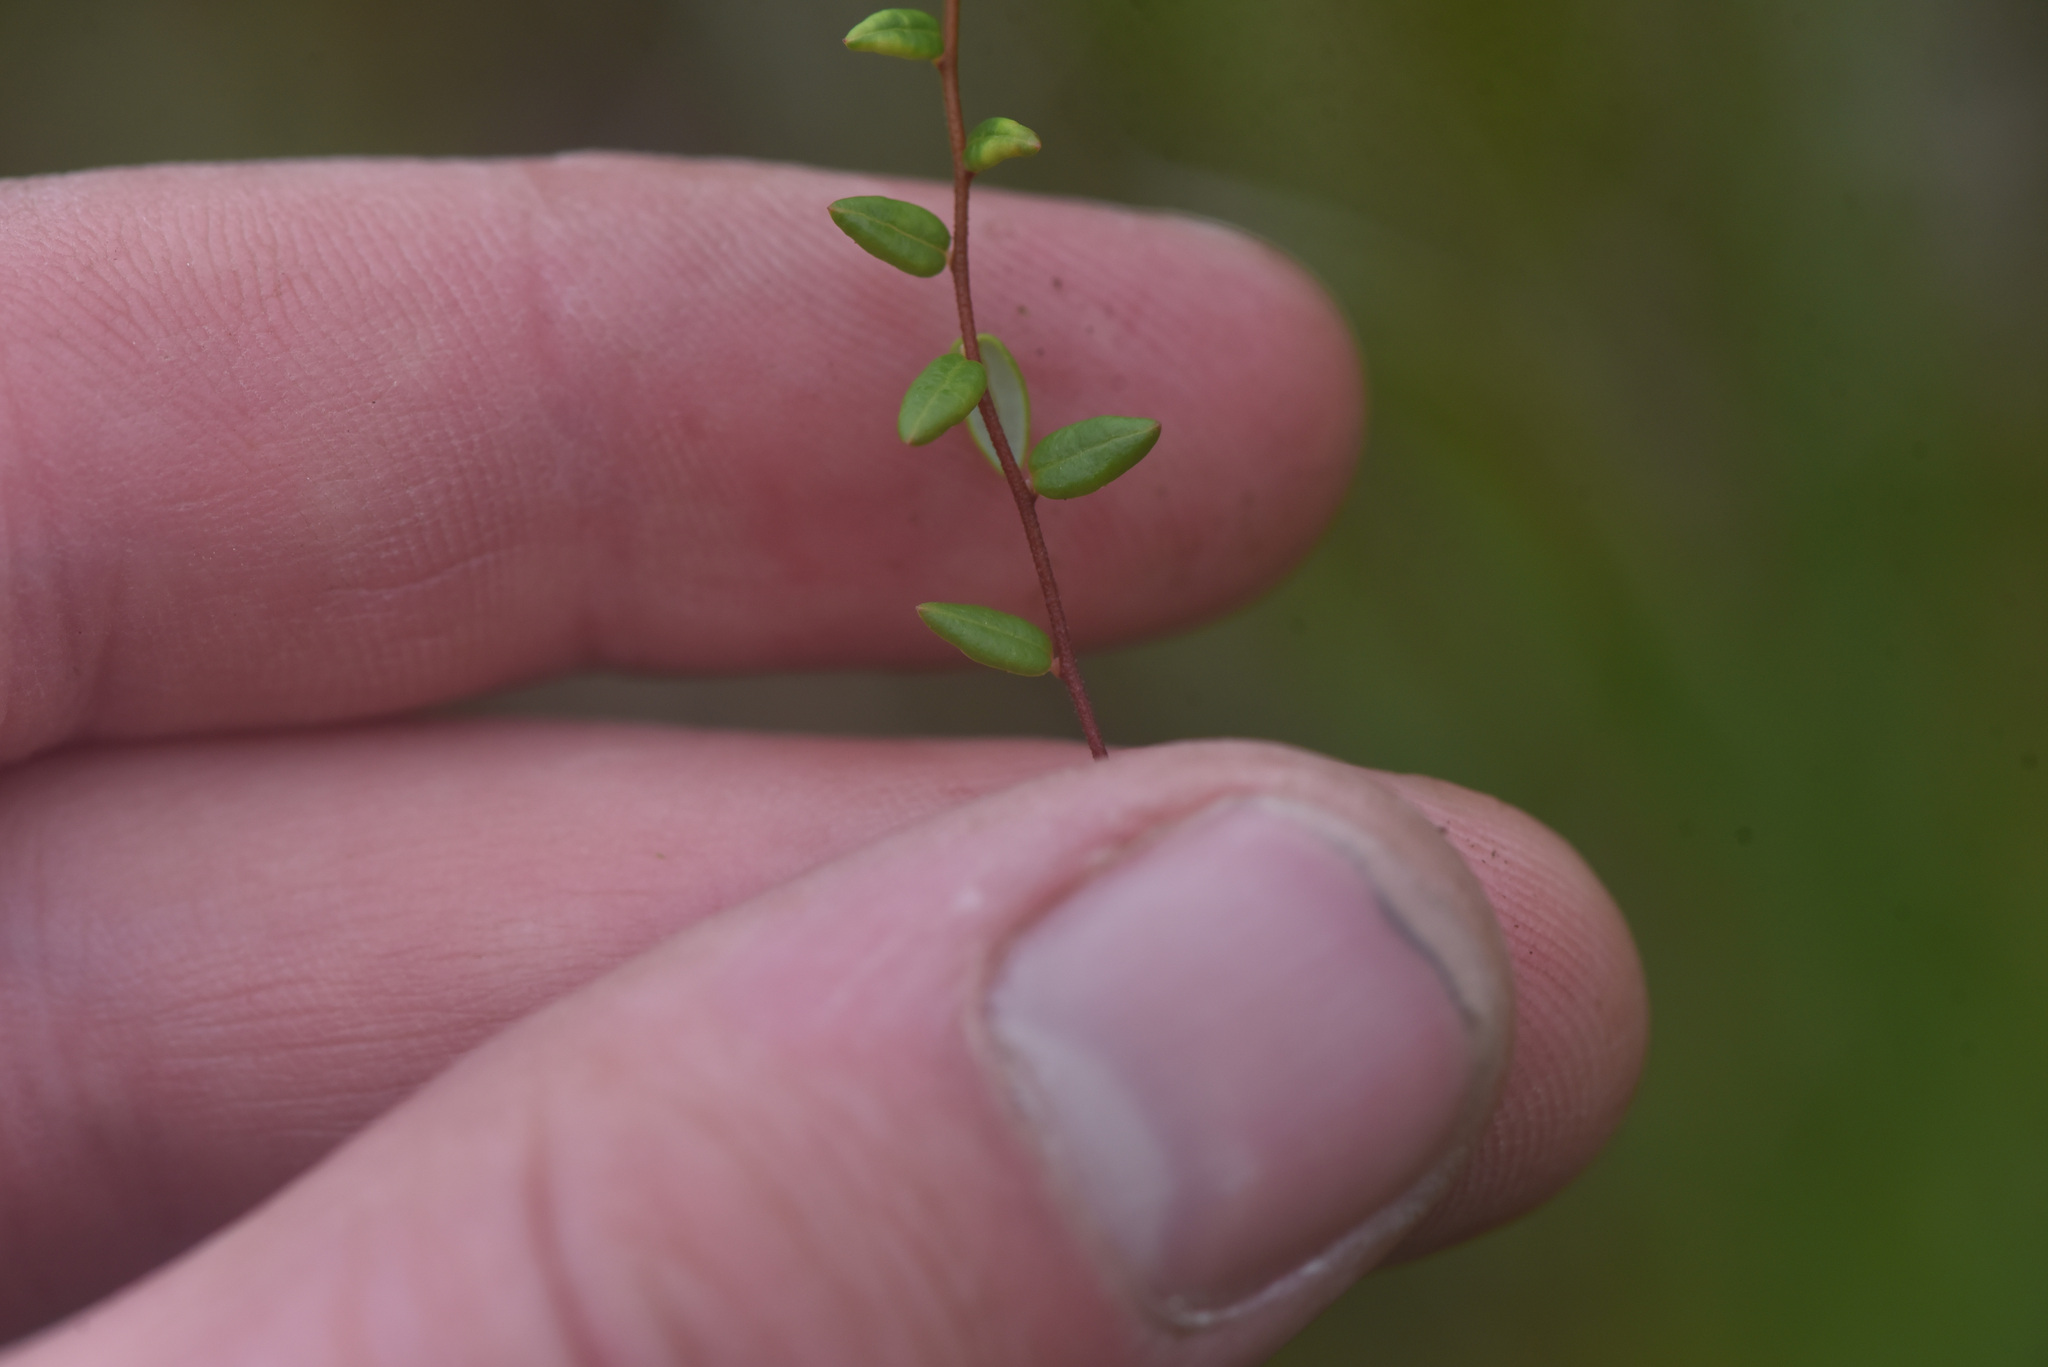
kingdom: Plantae
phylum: Tracheophyta
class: Magnoliopsida
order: Ericales
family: Ericaceae
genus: Vaccinium
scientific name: Vaccinium microcarpum
